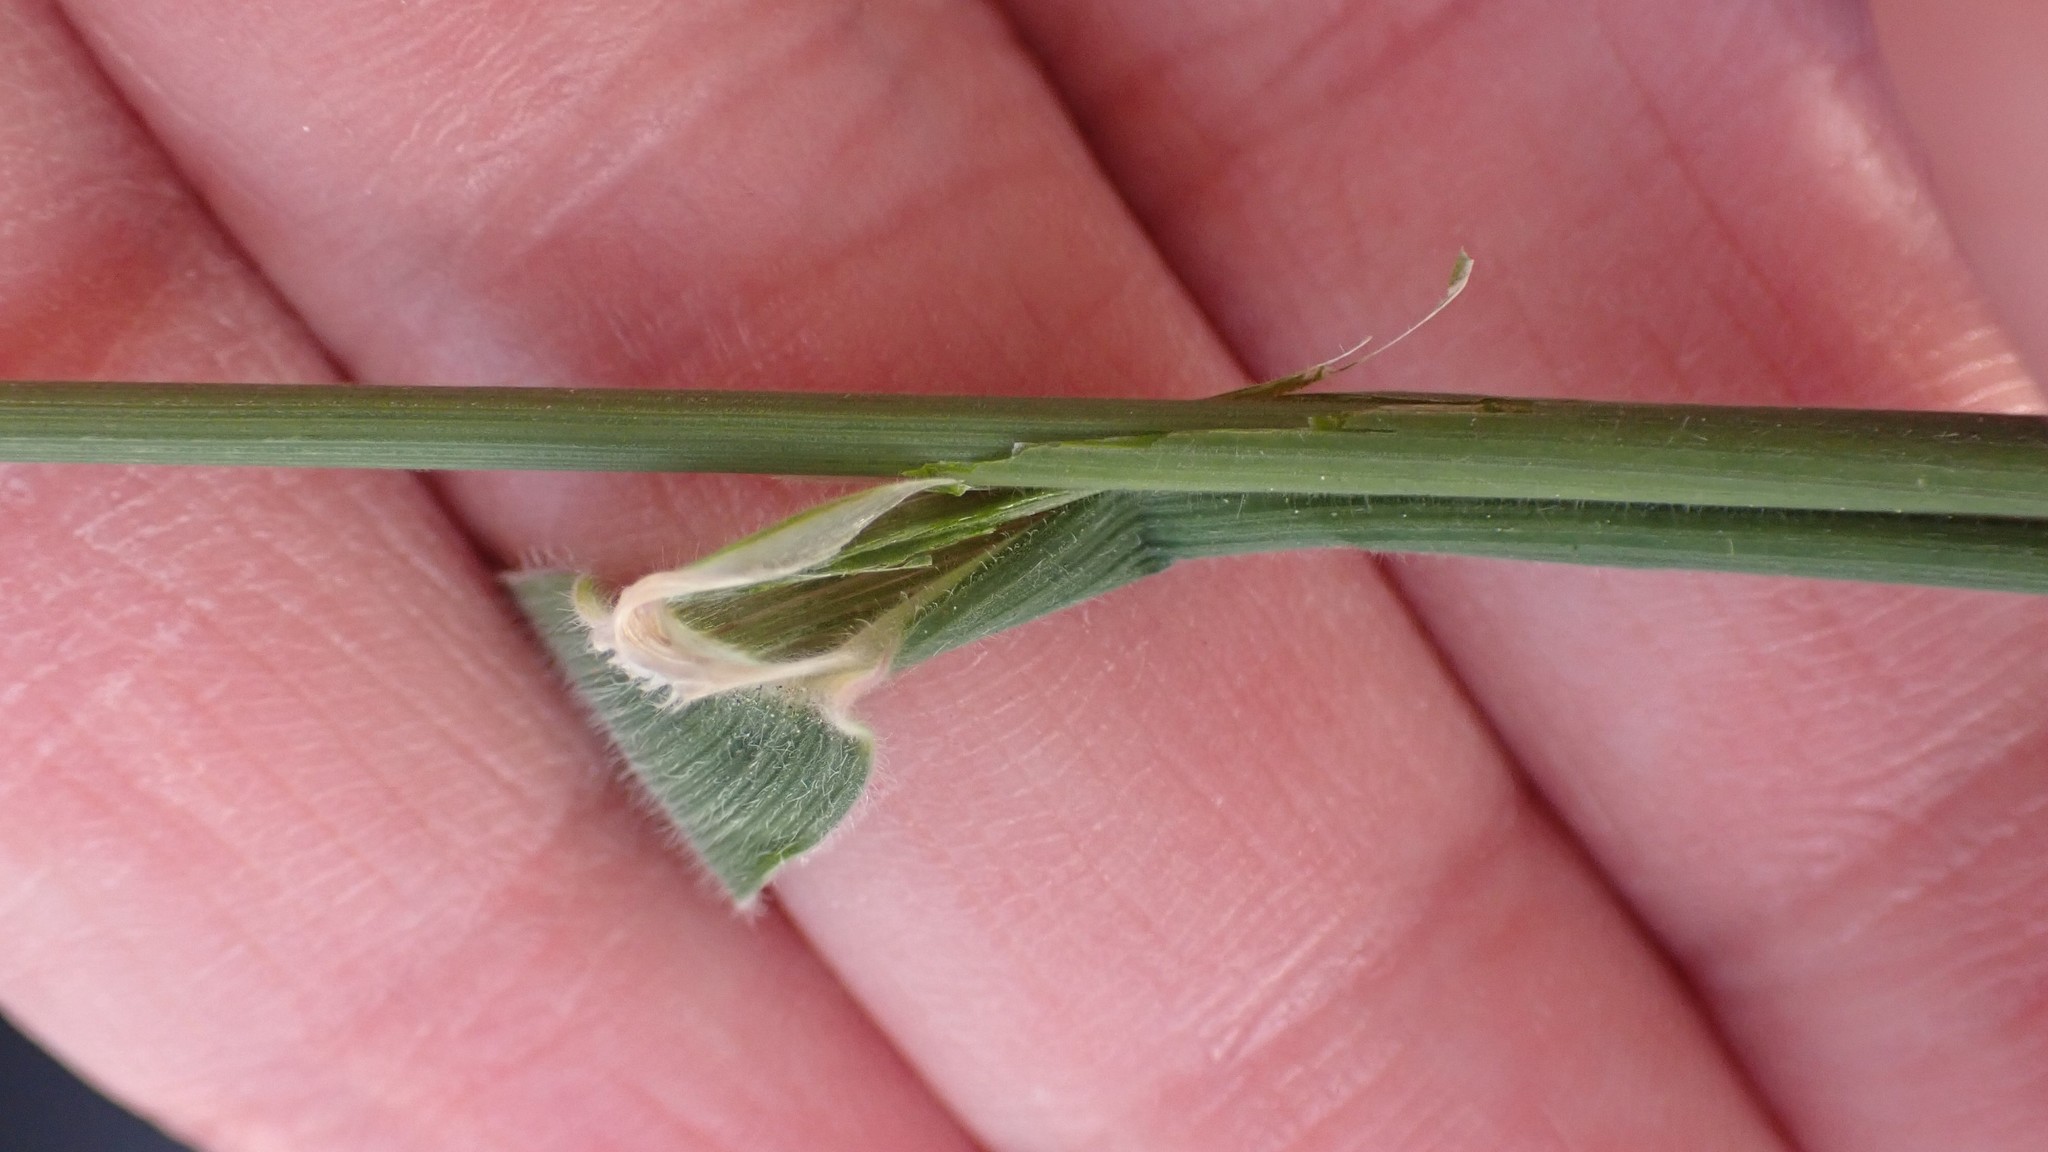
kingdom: Plantae
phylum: Tracheophyta
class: Liliopsida
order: Poales
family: Poaceae
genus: Holcus
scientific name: Holcus lanatus
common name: Yorkshire-fog
